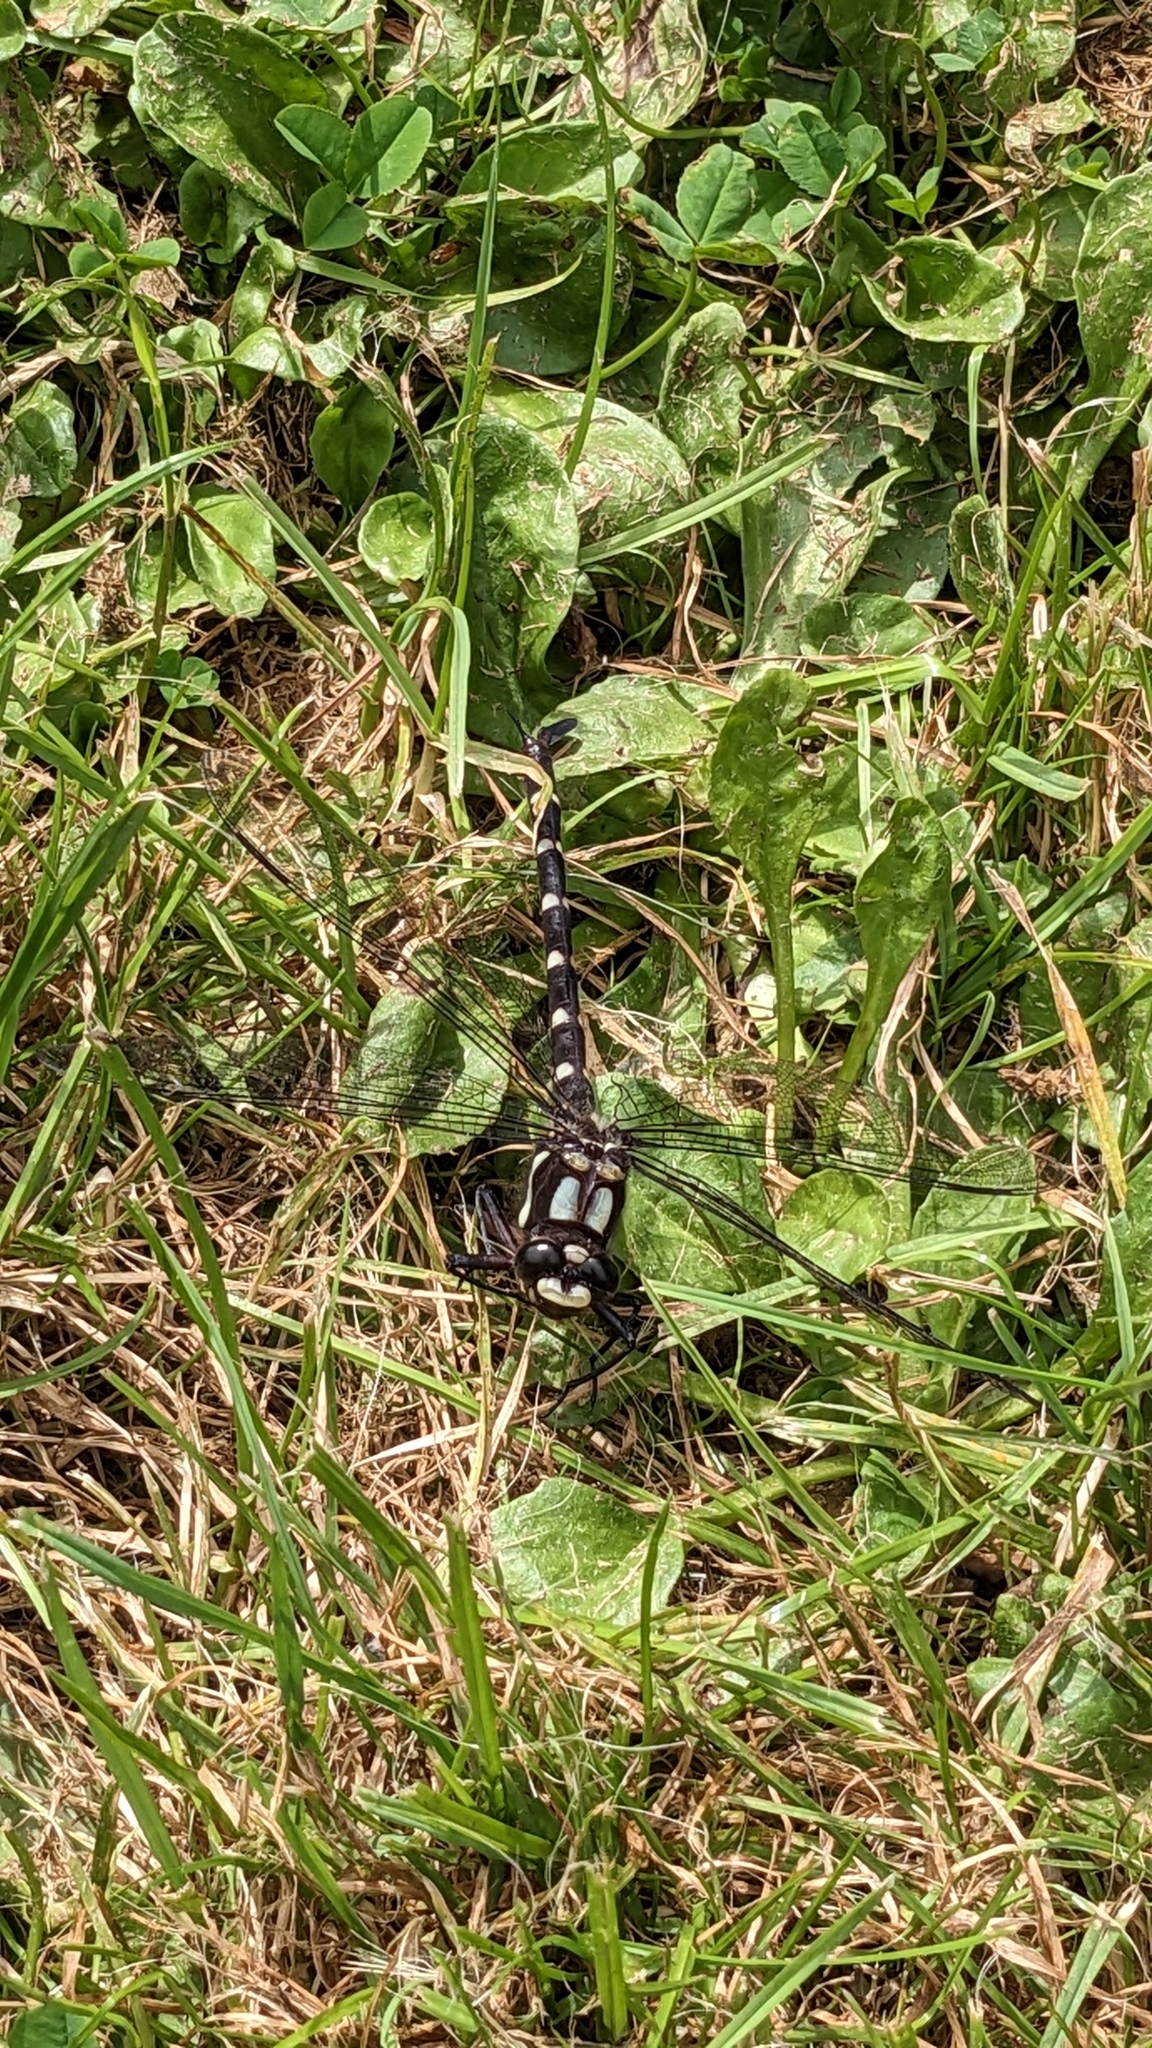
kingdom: Animalia
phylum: Arthropoda
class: Insecta
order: Odonata
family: Petaluridae
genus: Uropetala
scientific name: Uropetala carovei
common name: Bush giant dragonfly
